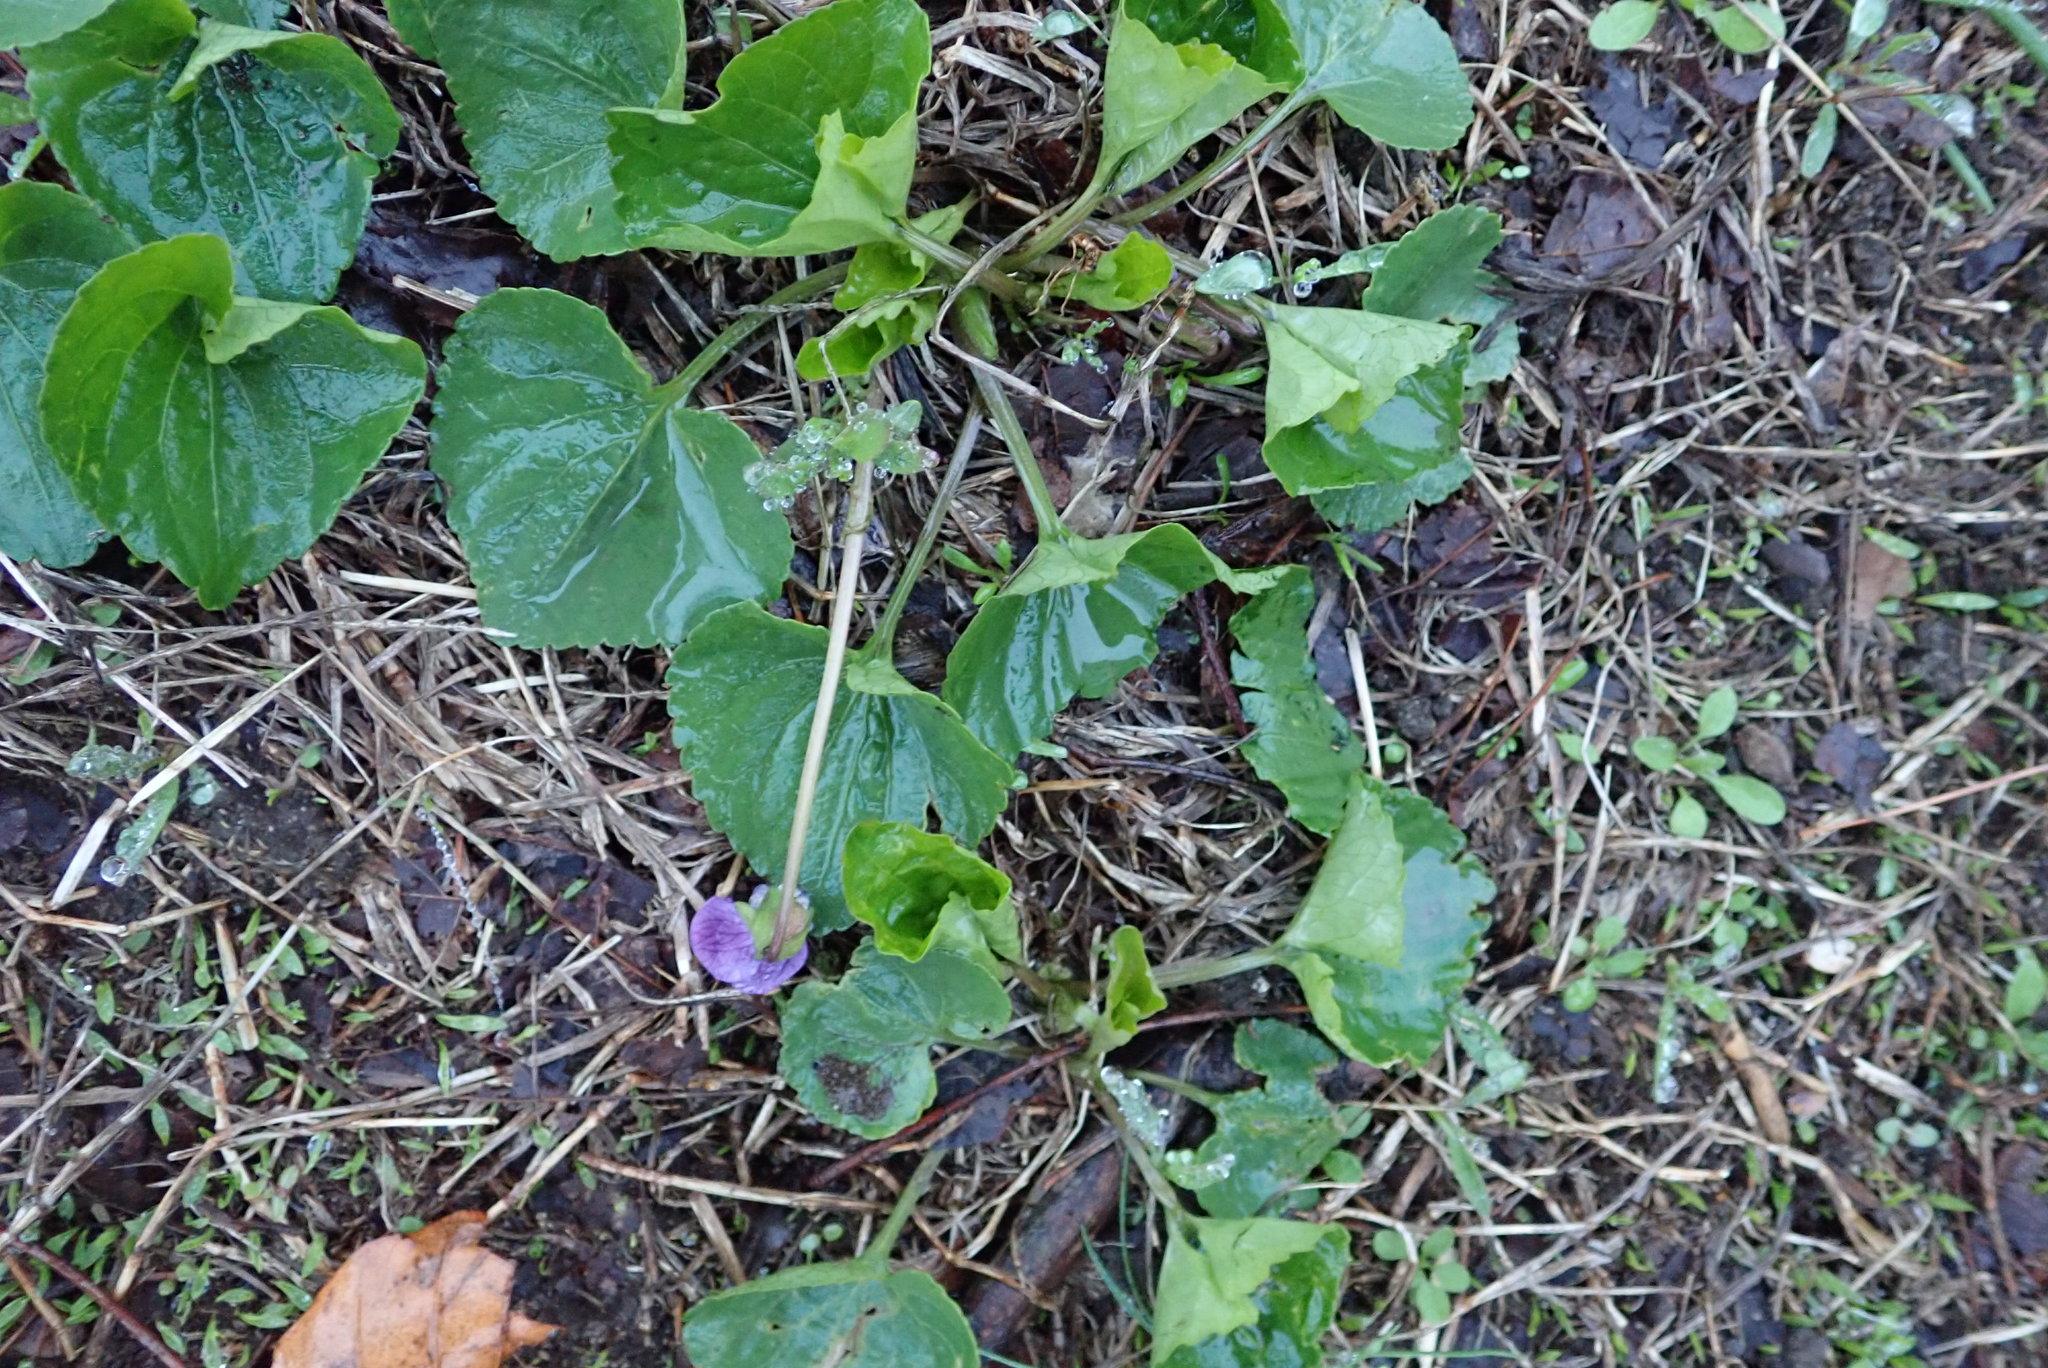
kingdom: Plantae
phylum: Tracheophyta
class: Magnoliopsida
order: Malpighiales
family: Violaceae
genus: Viola
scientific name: Viola sororia
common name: Dooryard violet
